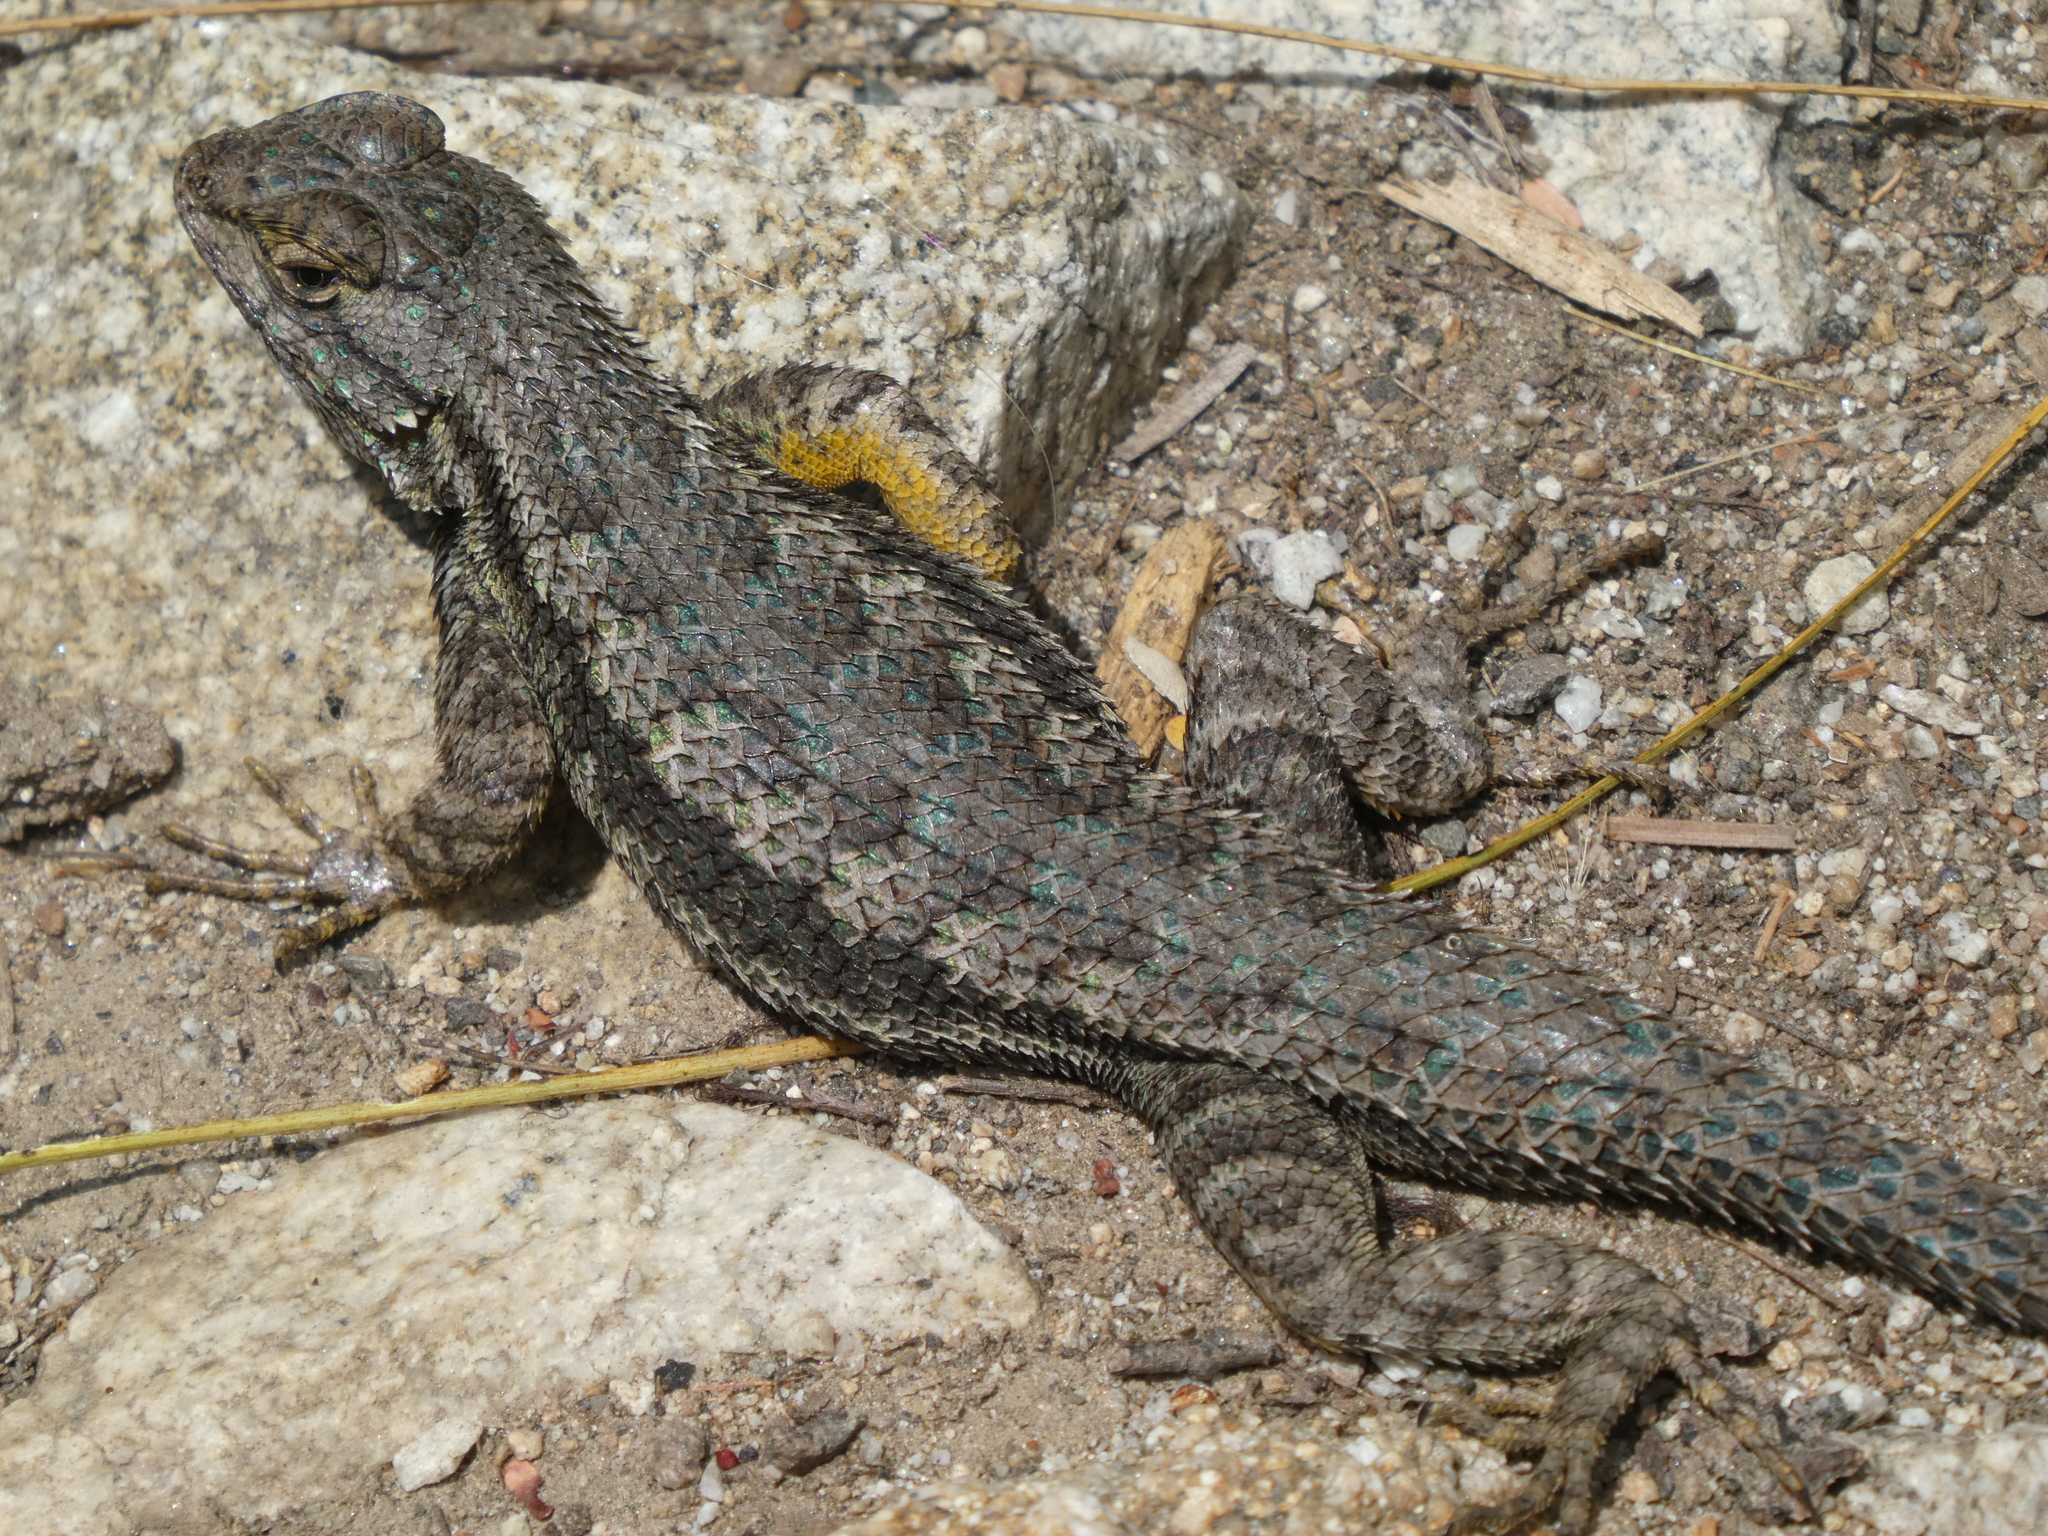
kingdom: Animalia
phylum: Chordata
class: Squamata
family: Phrynosomatidae
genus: Sceloporus
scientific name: Sceloporus occidentalis
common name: Western fence lizard
